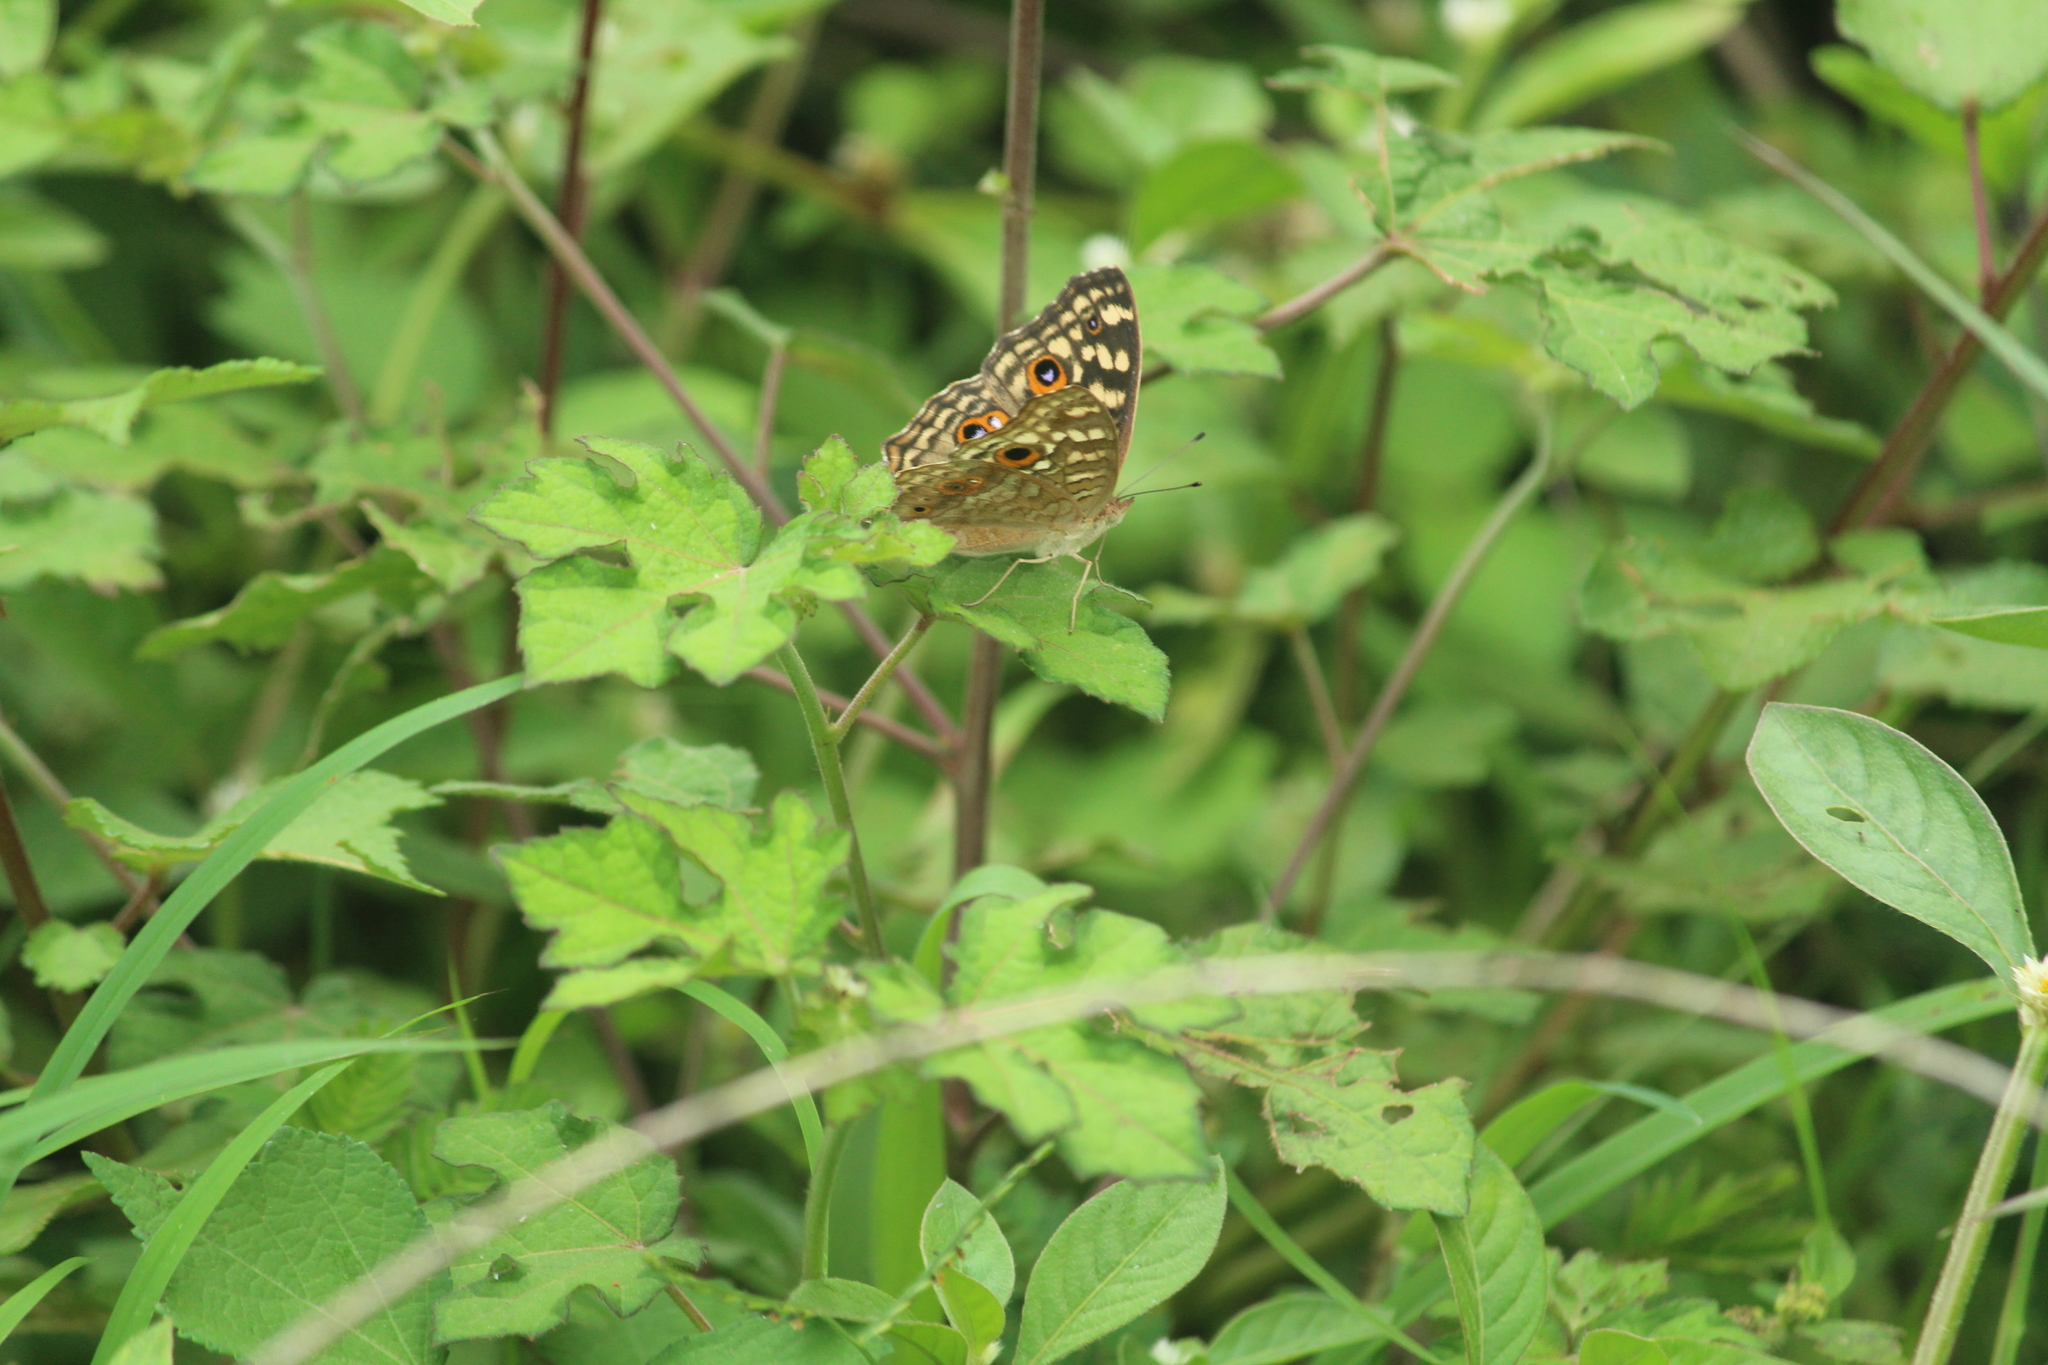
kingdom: Animalia
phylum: Arthropoda
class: Insecta
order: Lepidoptera
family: Nymphalidae
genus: Junonia
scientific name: Junonia lemonias
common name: Lemon pansy
